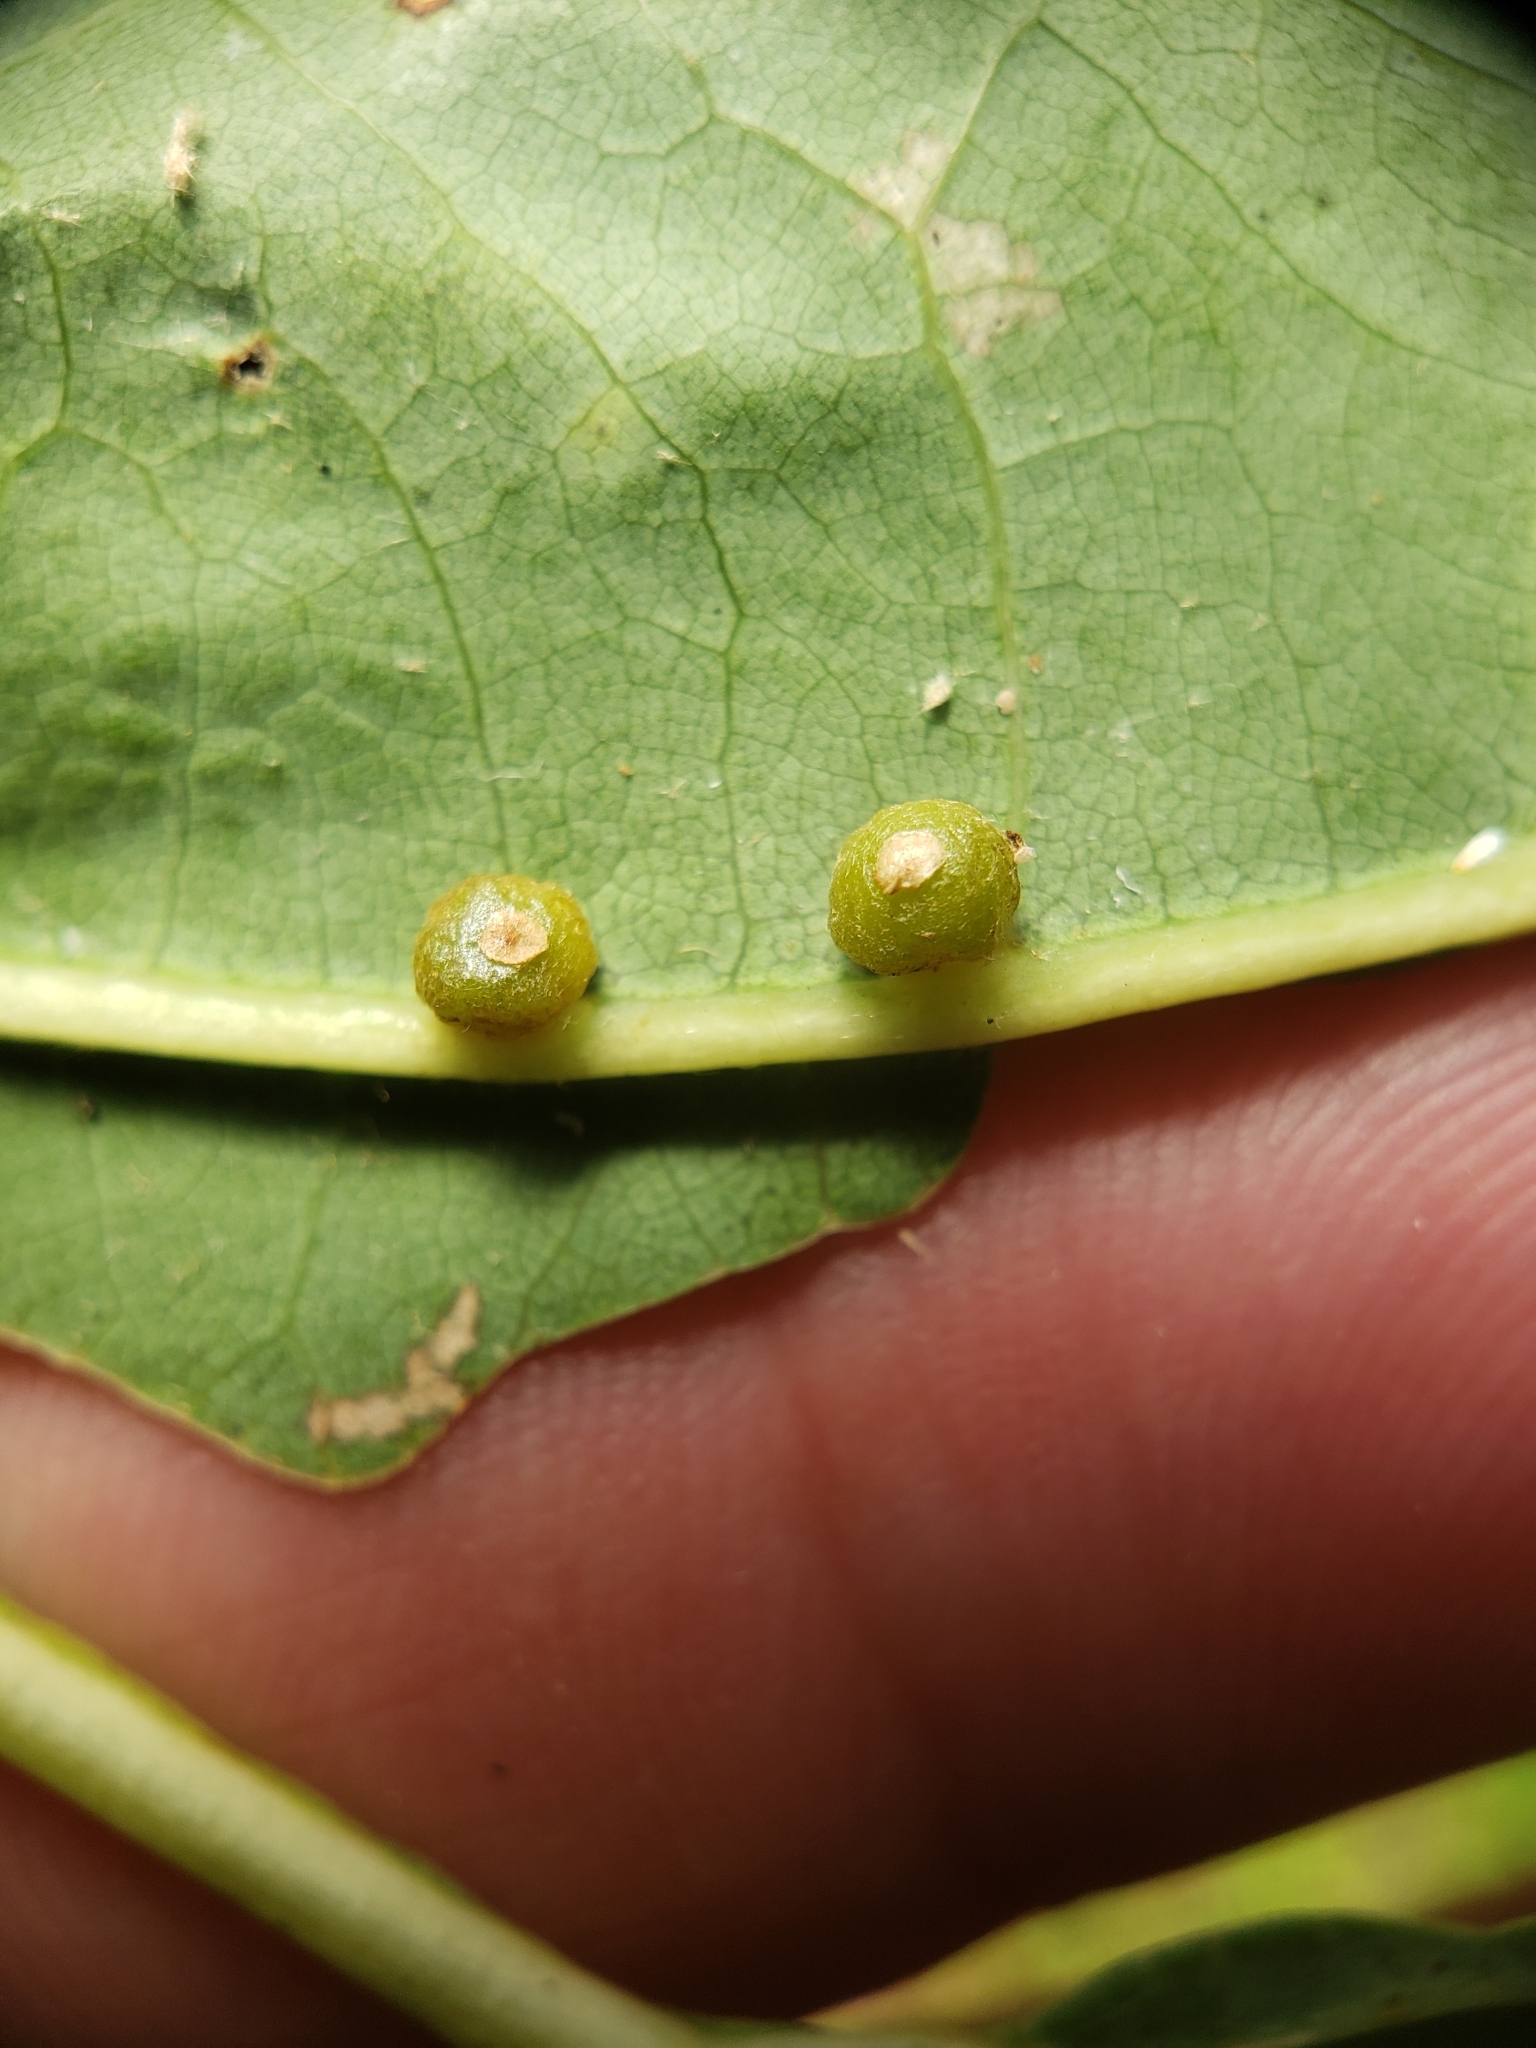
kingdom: Animalia
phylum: Arthropoda
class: Insecta
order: Diptera
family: Cecidomyiidae
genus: Polystepha
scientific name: Polystepha globosa
